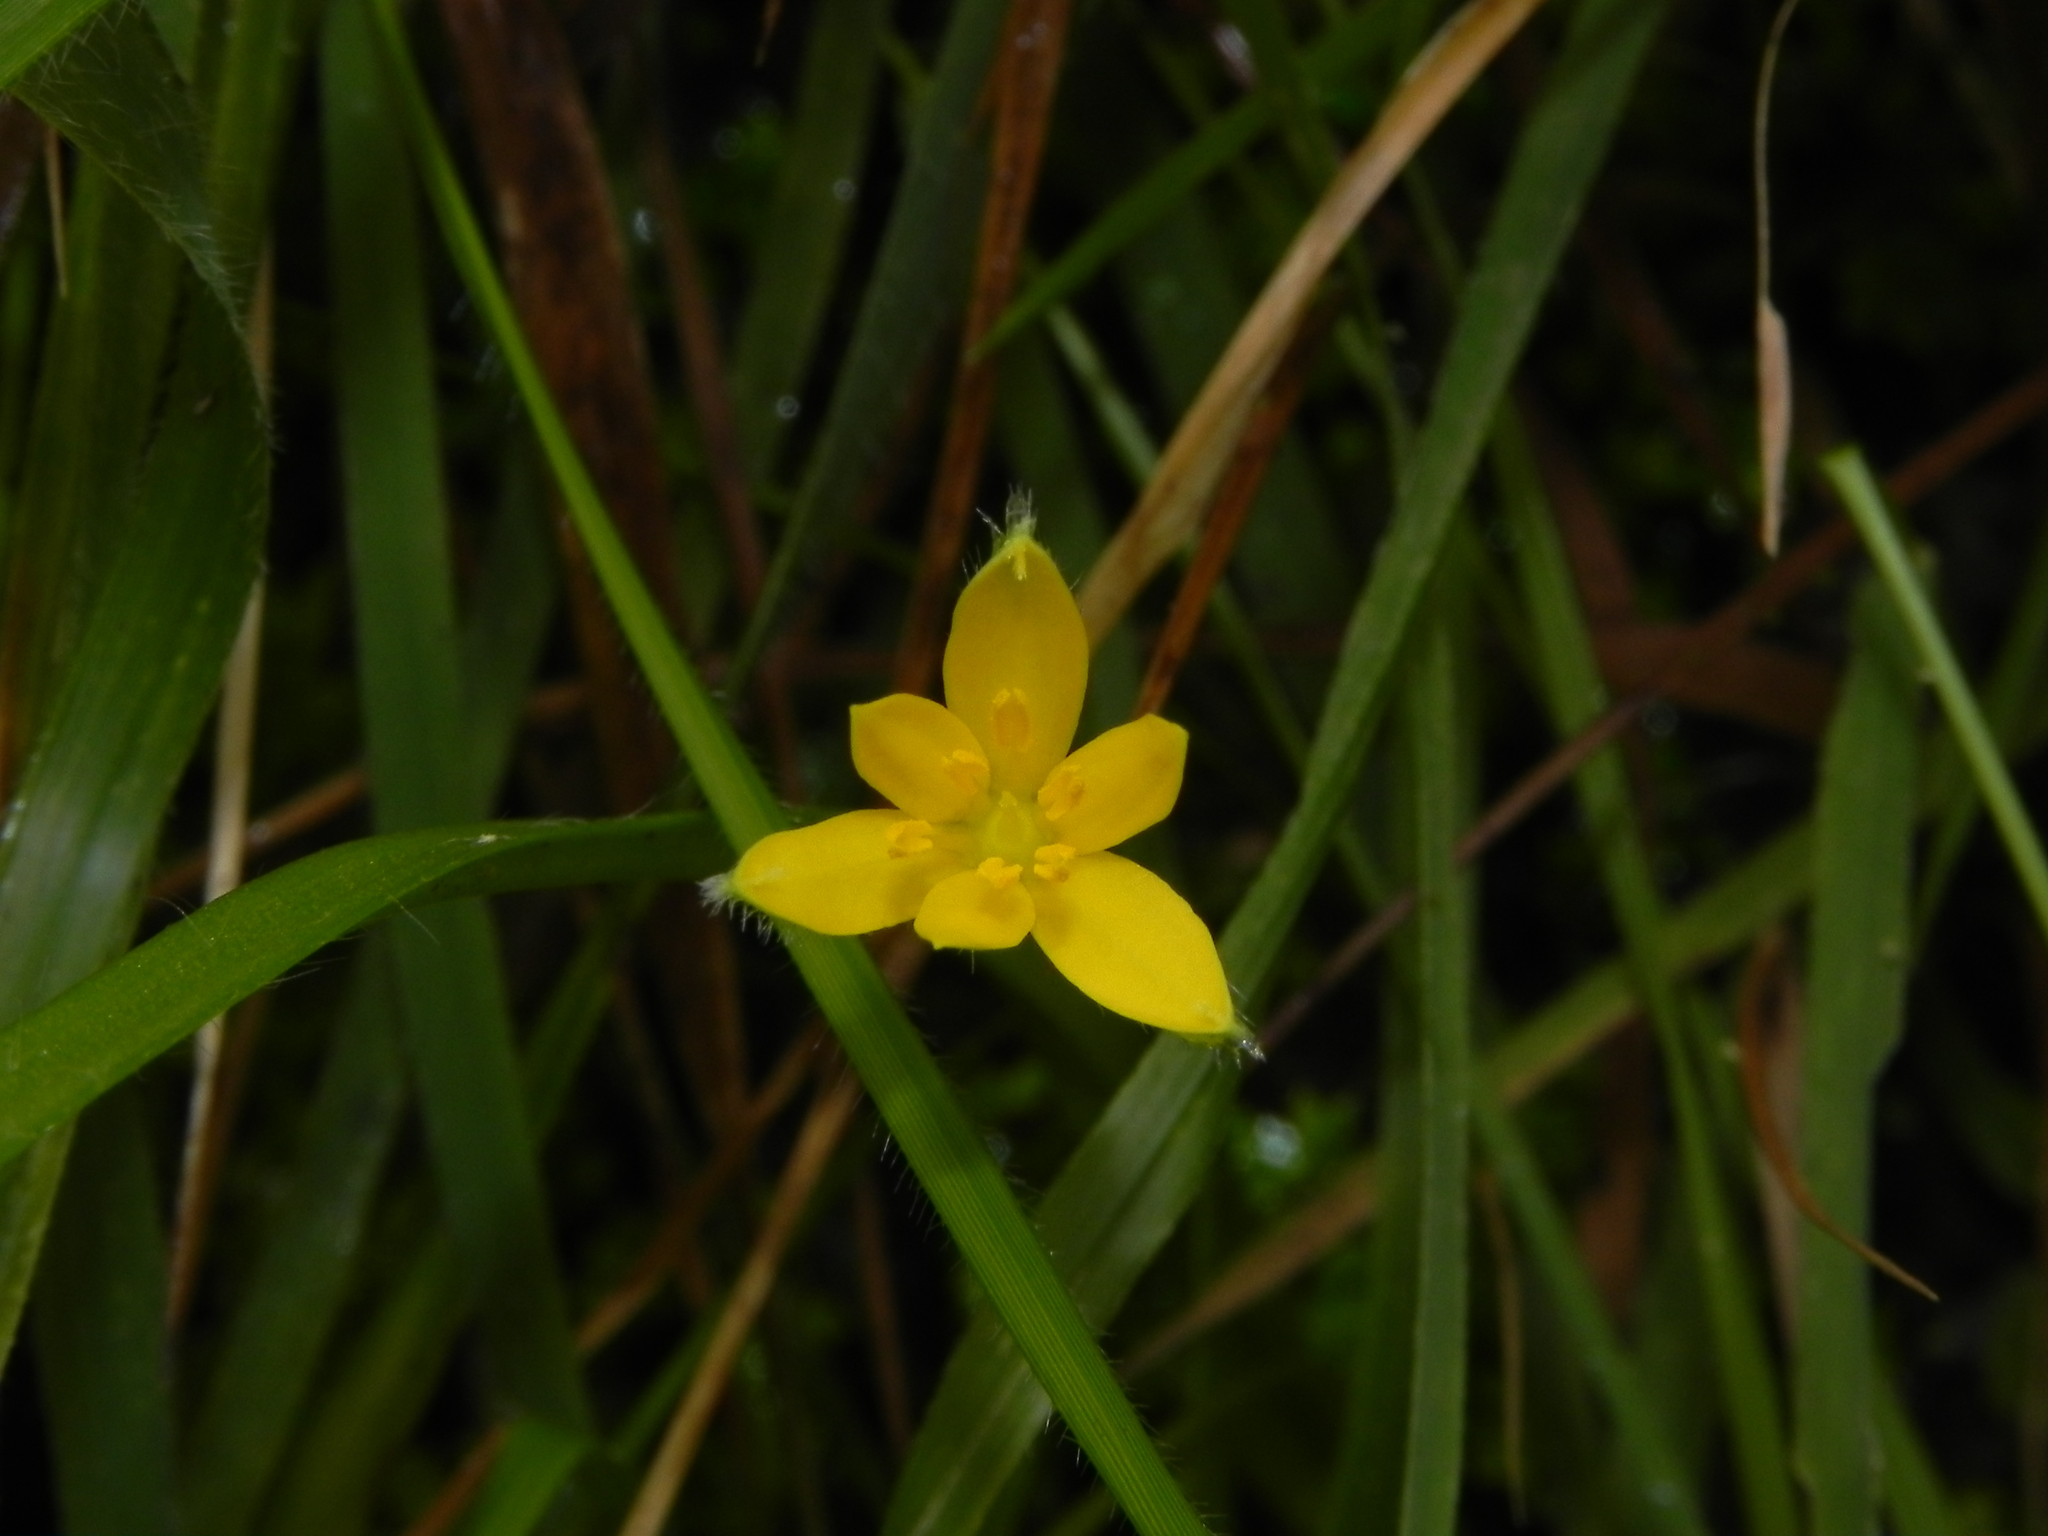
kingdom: Plantae
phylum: Tracheophyta
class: Liliopsida
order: Asparagales
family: Hypoxidaceae
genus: Hypoxis
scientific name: Hypoxis aurea
